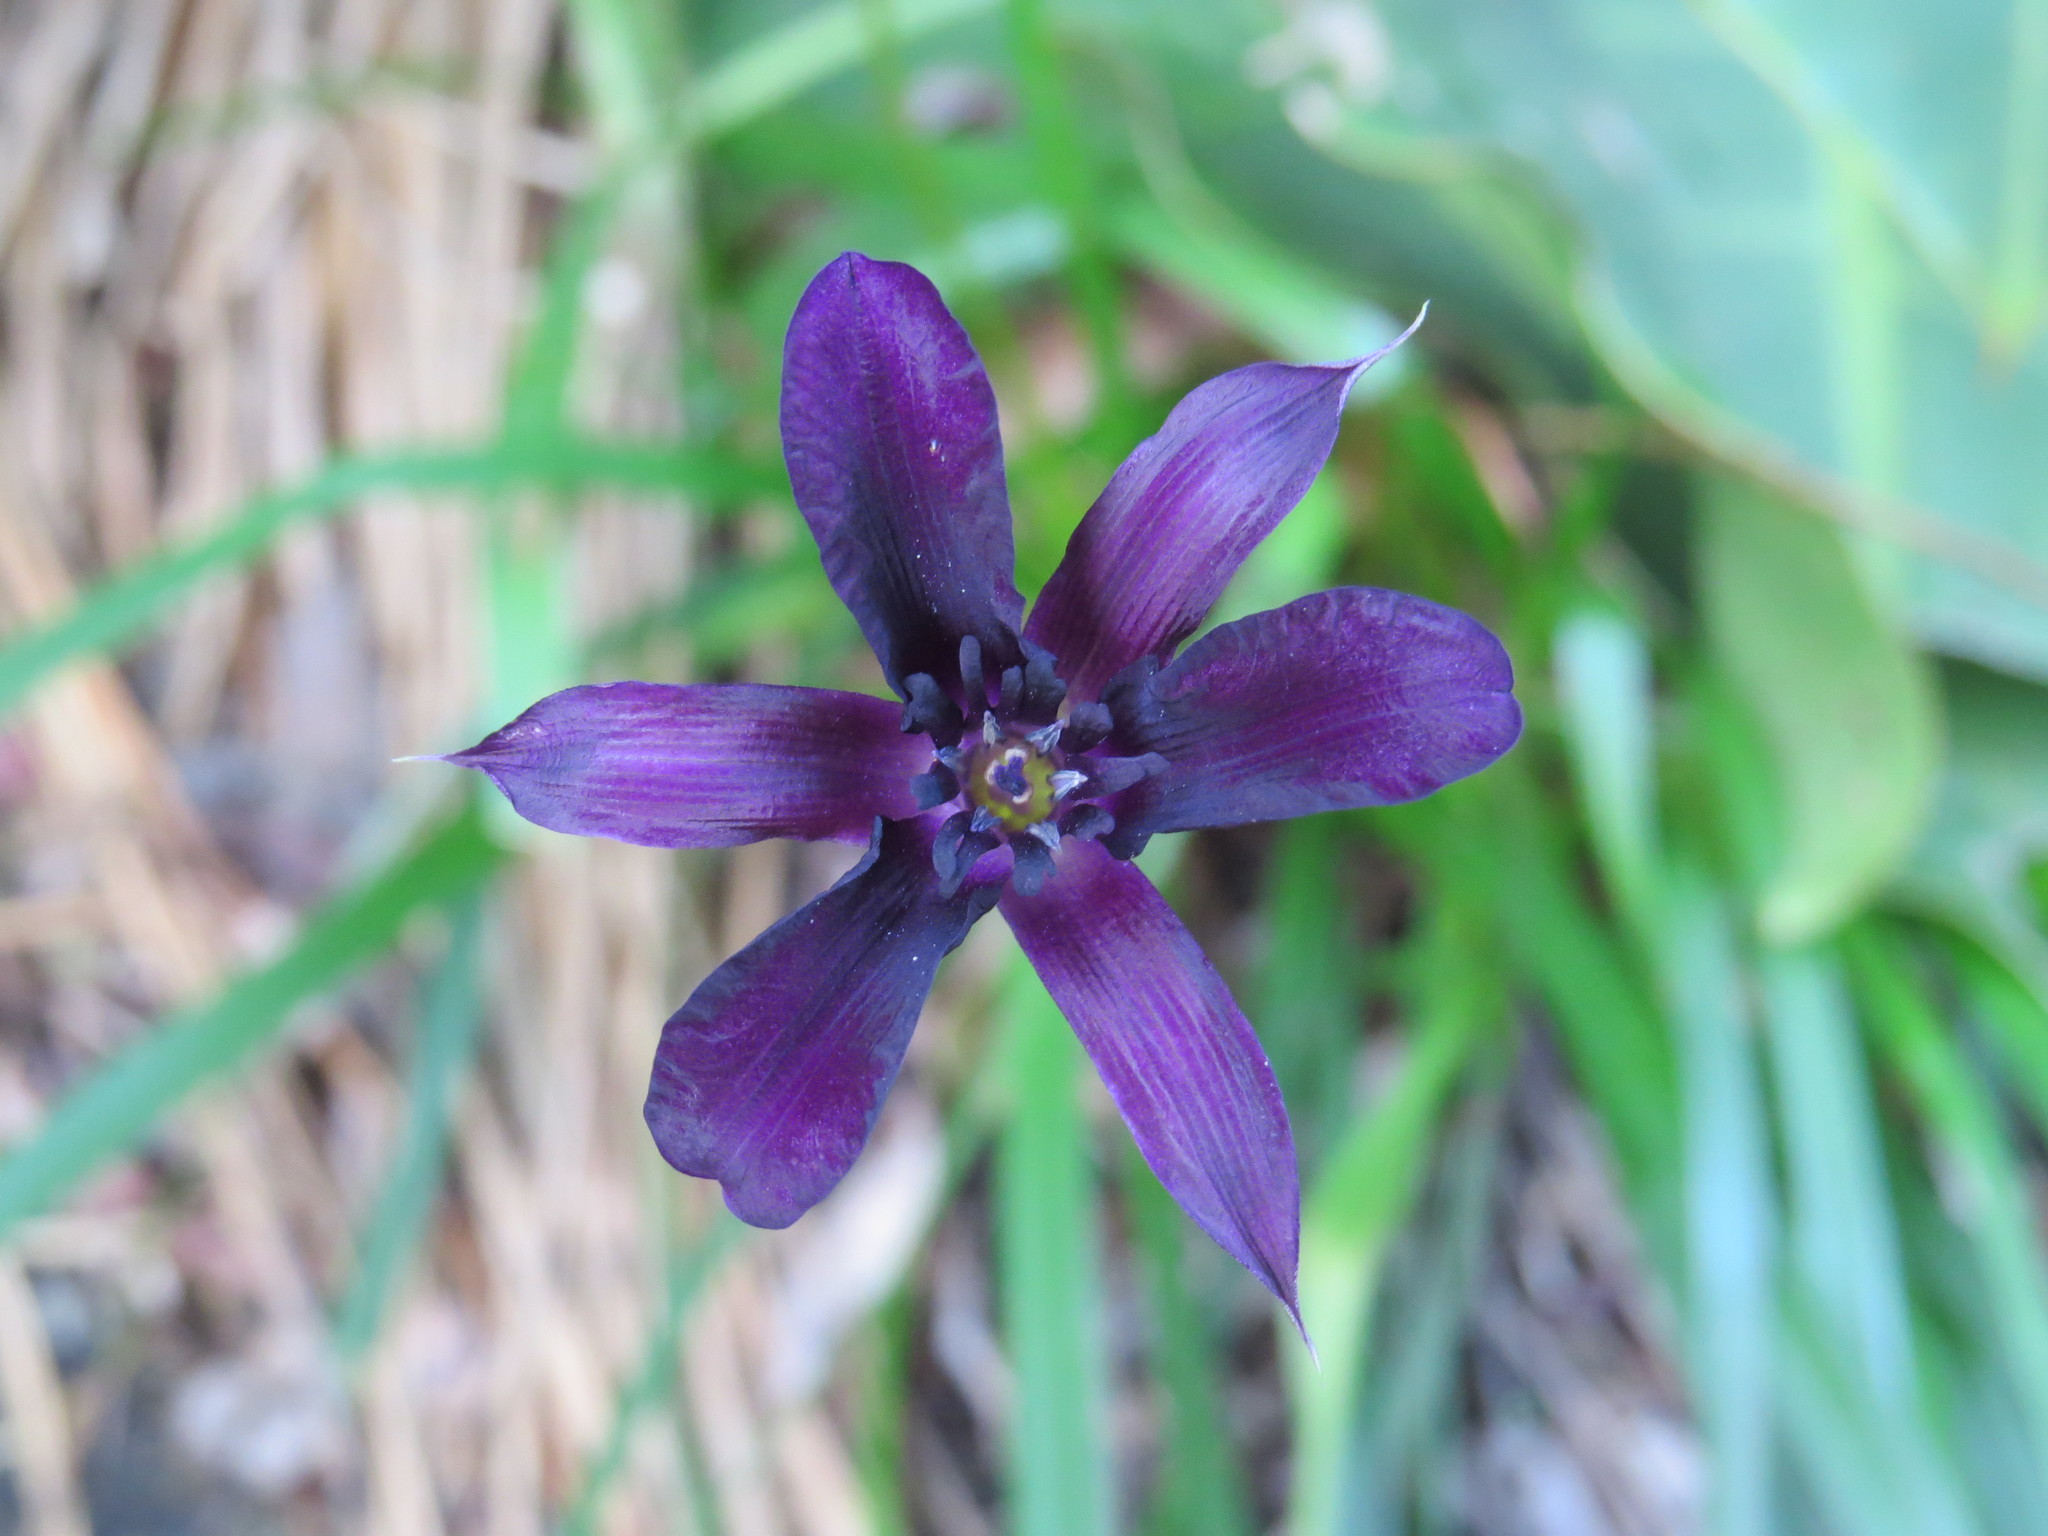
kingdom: Plantae
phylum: Tracheophyta
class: Liliopsida
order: Pandanales
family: Velloziaceae
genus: Barbacenia
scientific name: Barbacenia purpurea
